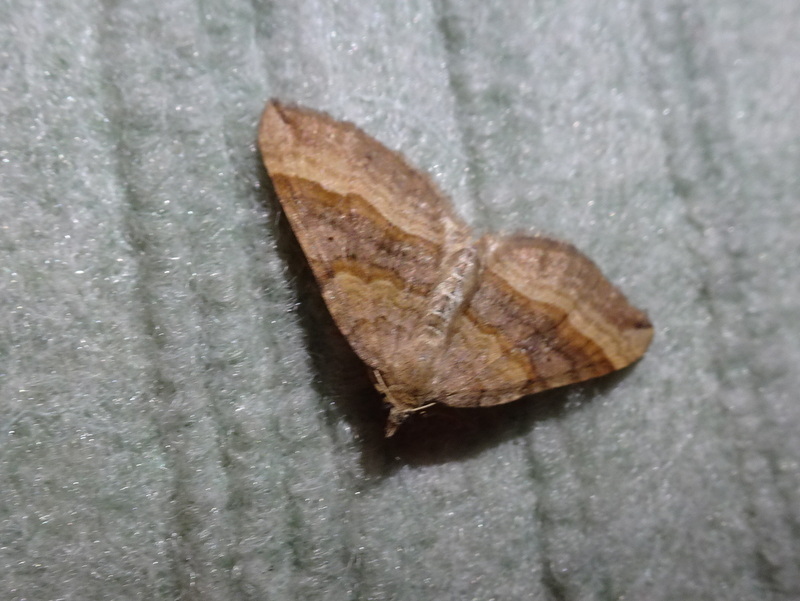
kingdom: Animalia
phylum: Arthropoda
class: Insecta
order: Lepidoptera
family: Geometridae
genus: Scotopteryx
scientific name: Scotopteryx chenopodiata
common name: Shaded broad-bar
